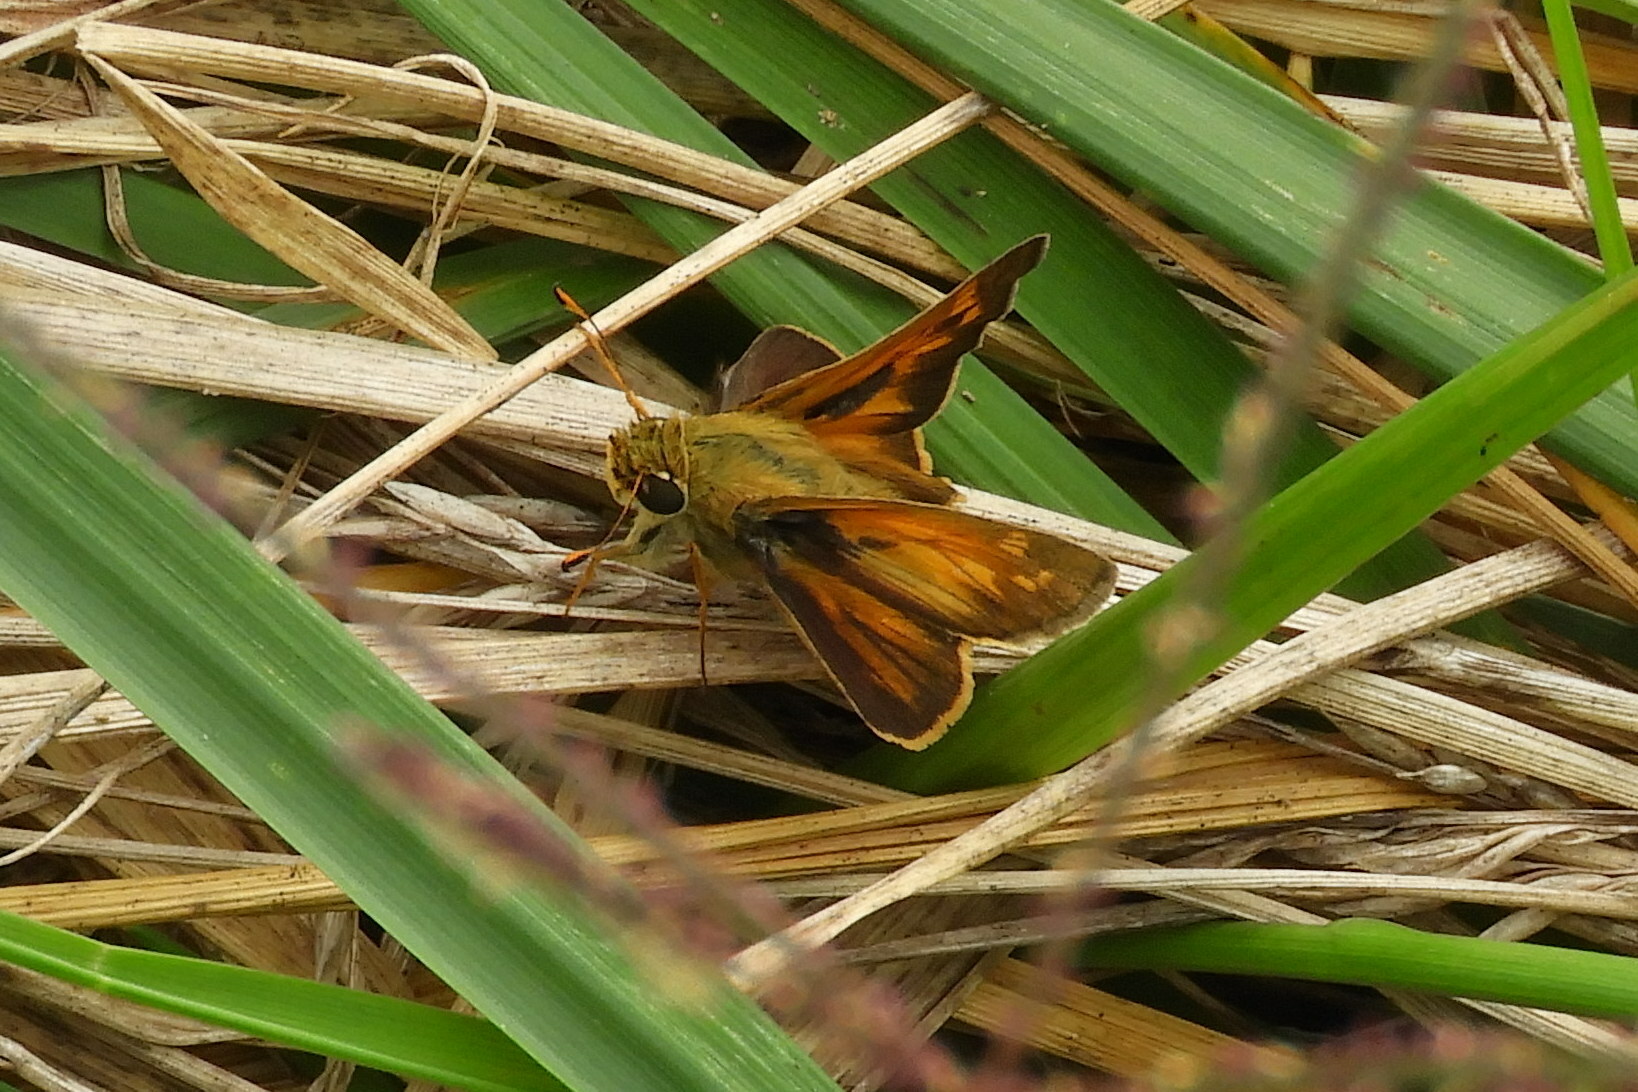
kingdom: Animalia
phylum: Arthropoda
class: Insecta
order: Lepidoptera
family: Hesperiidae
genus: Atalopedes
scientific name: Atalopedes
